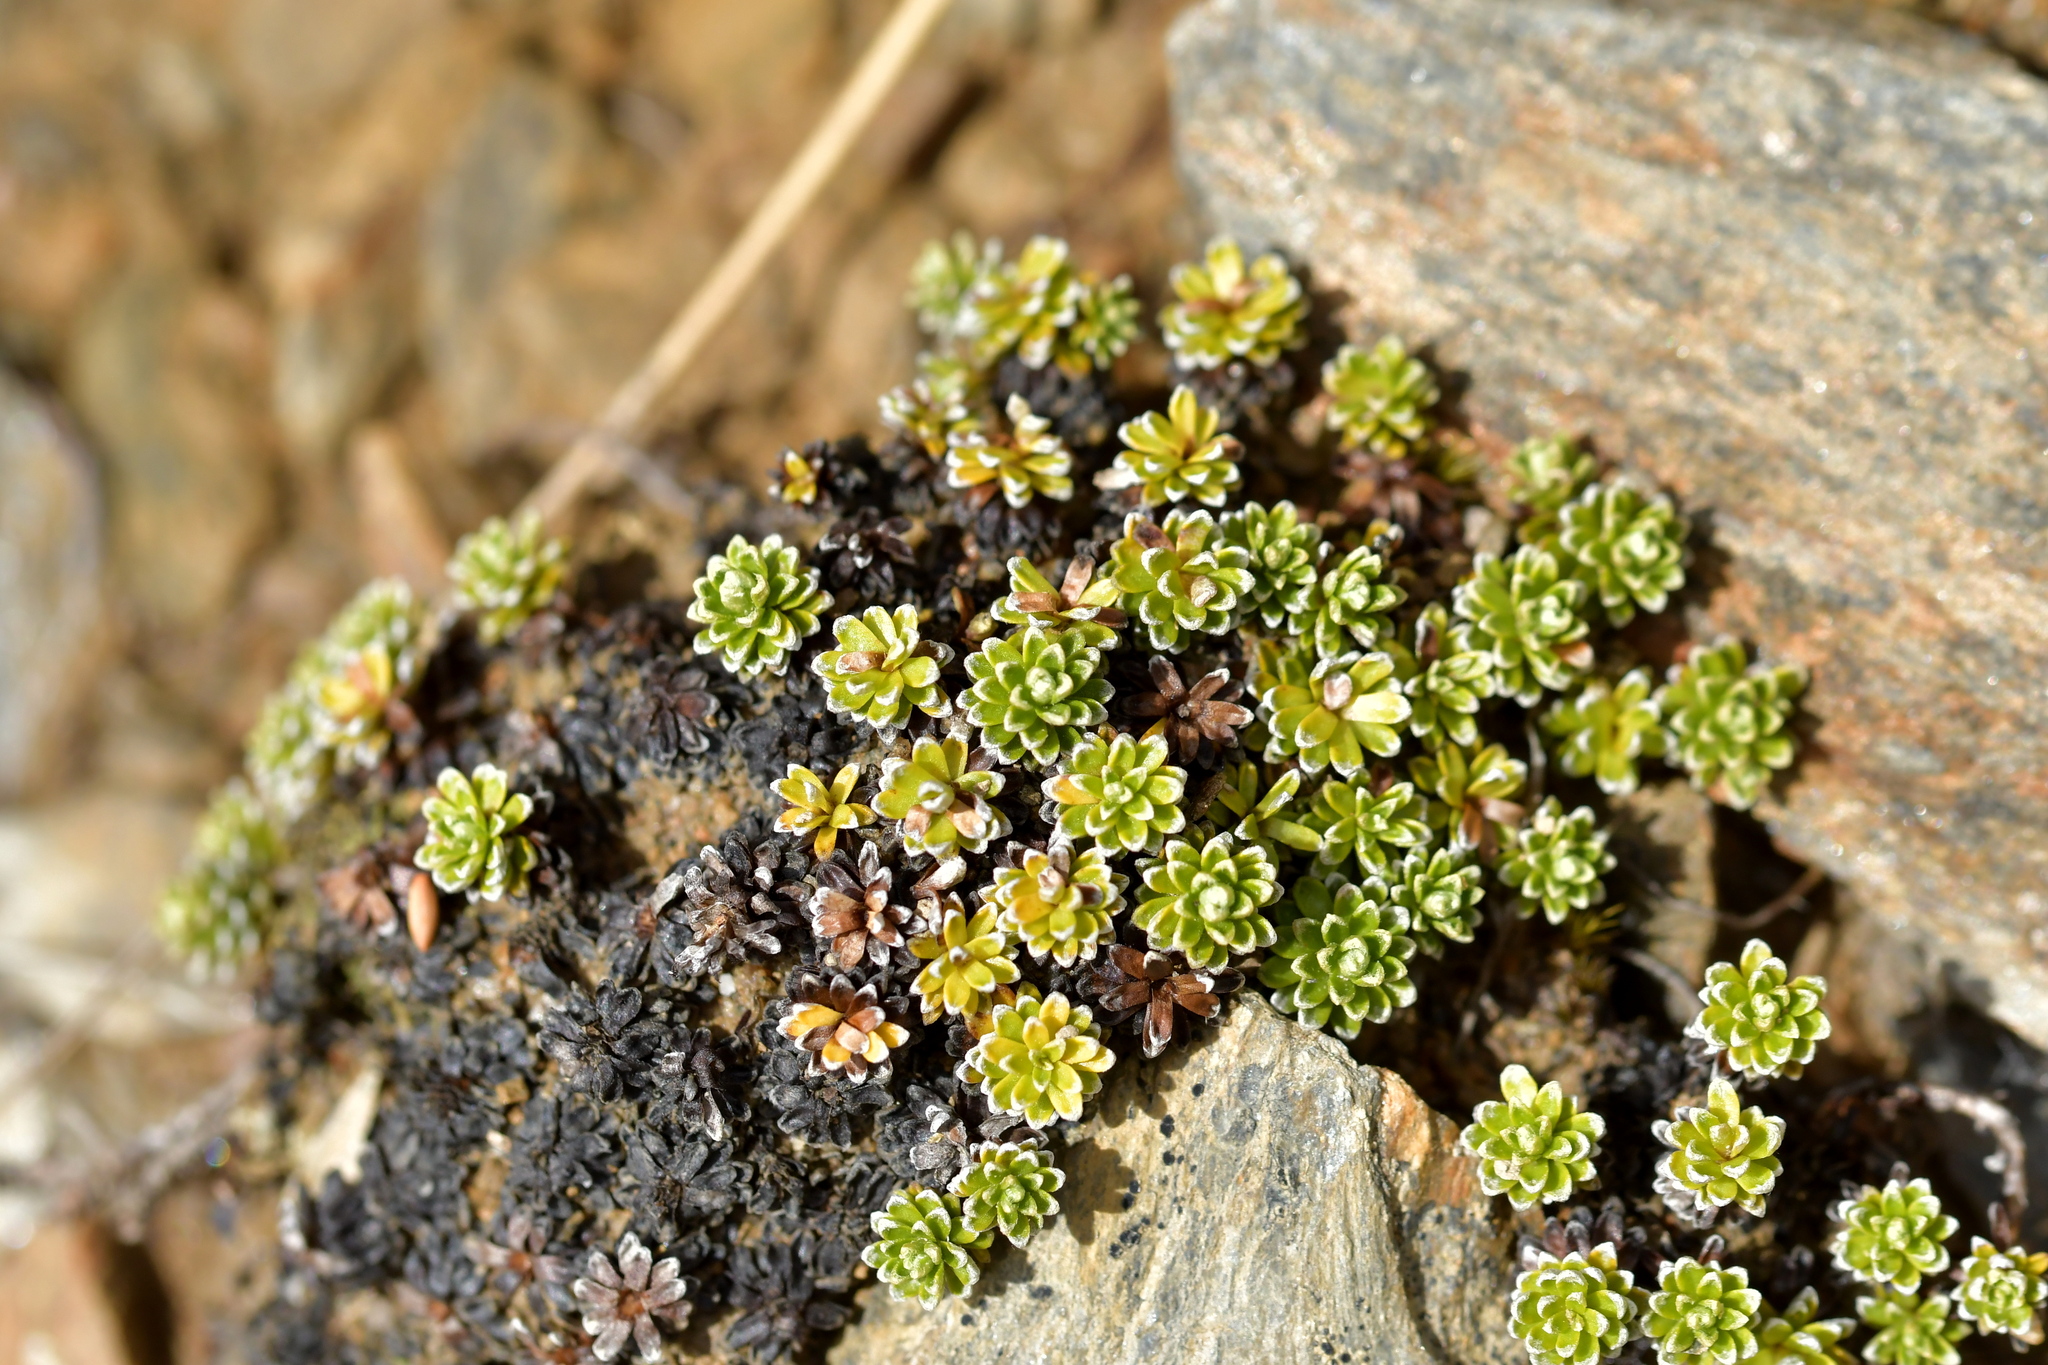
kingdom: Plantae
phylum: Tracheophyta
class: Magnoliopsida
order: Asterales
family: Asteraceae
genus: Raoulia
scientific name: Raoulia subsericea
